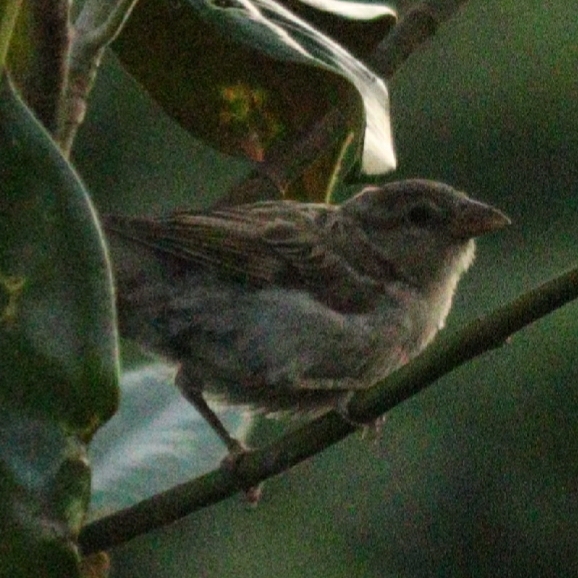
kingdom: Animalia
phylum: Chordata
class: Aves
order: Passeriformes
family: Passeridae
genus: Passer
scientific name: Passer domesticus
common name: House sparrow
